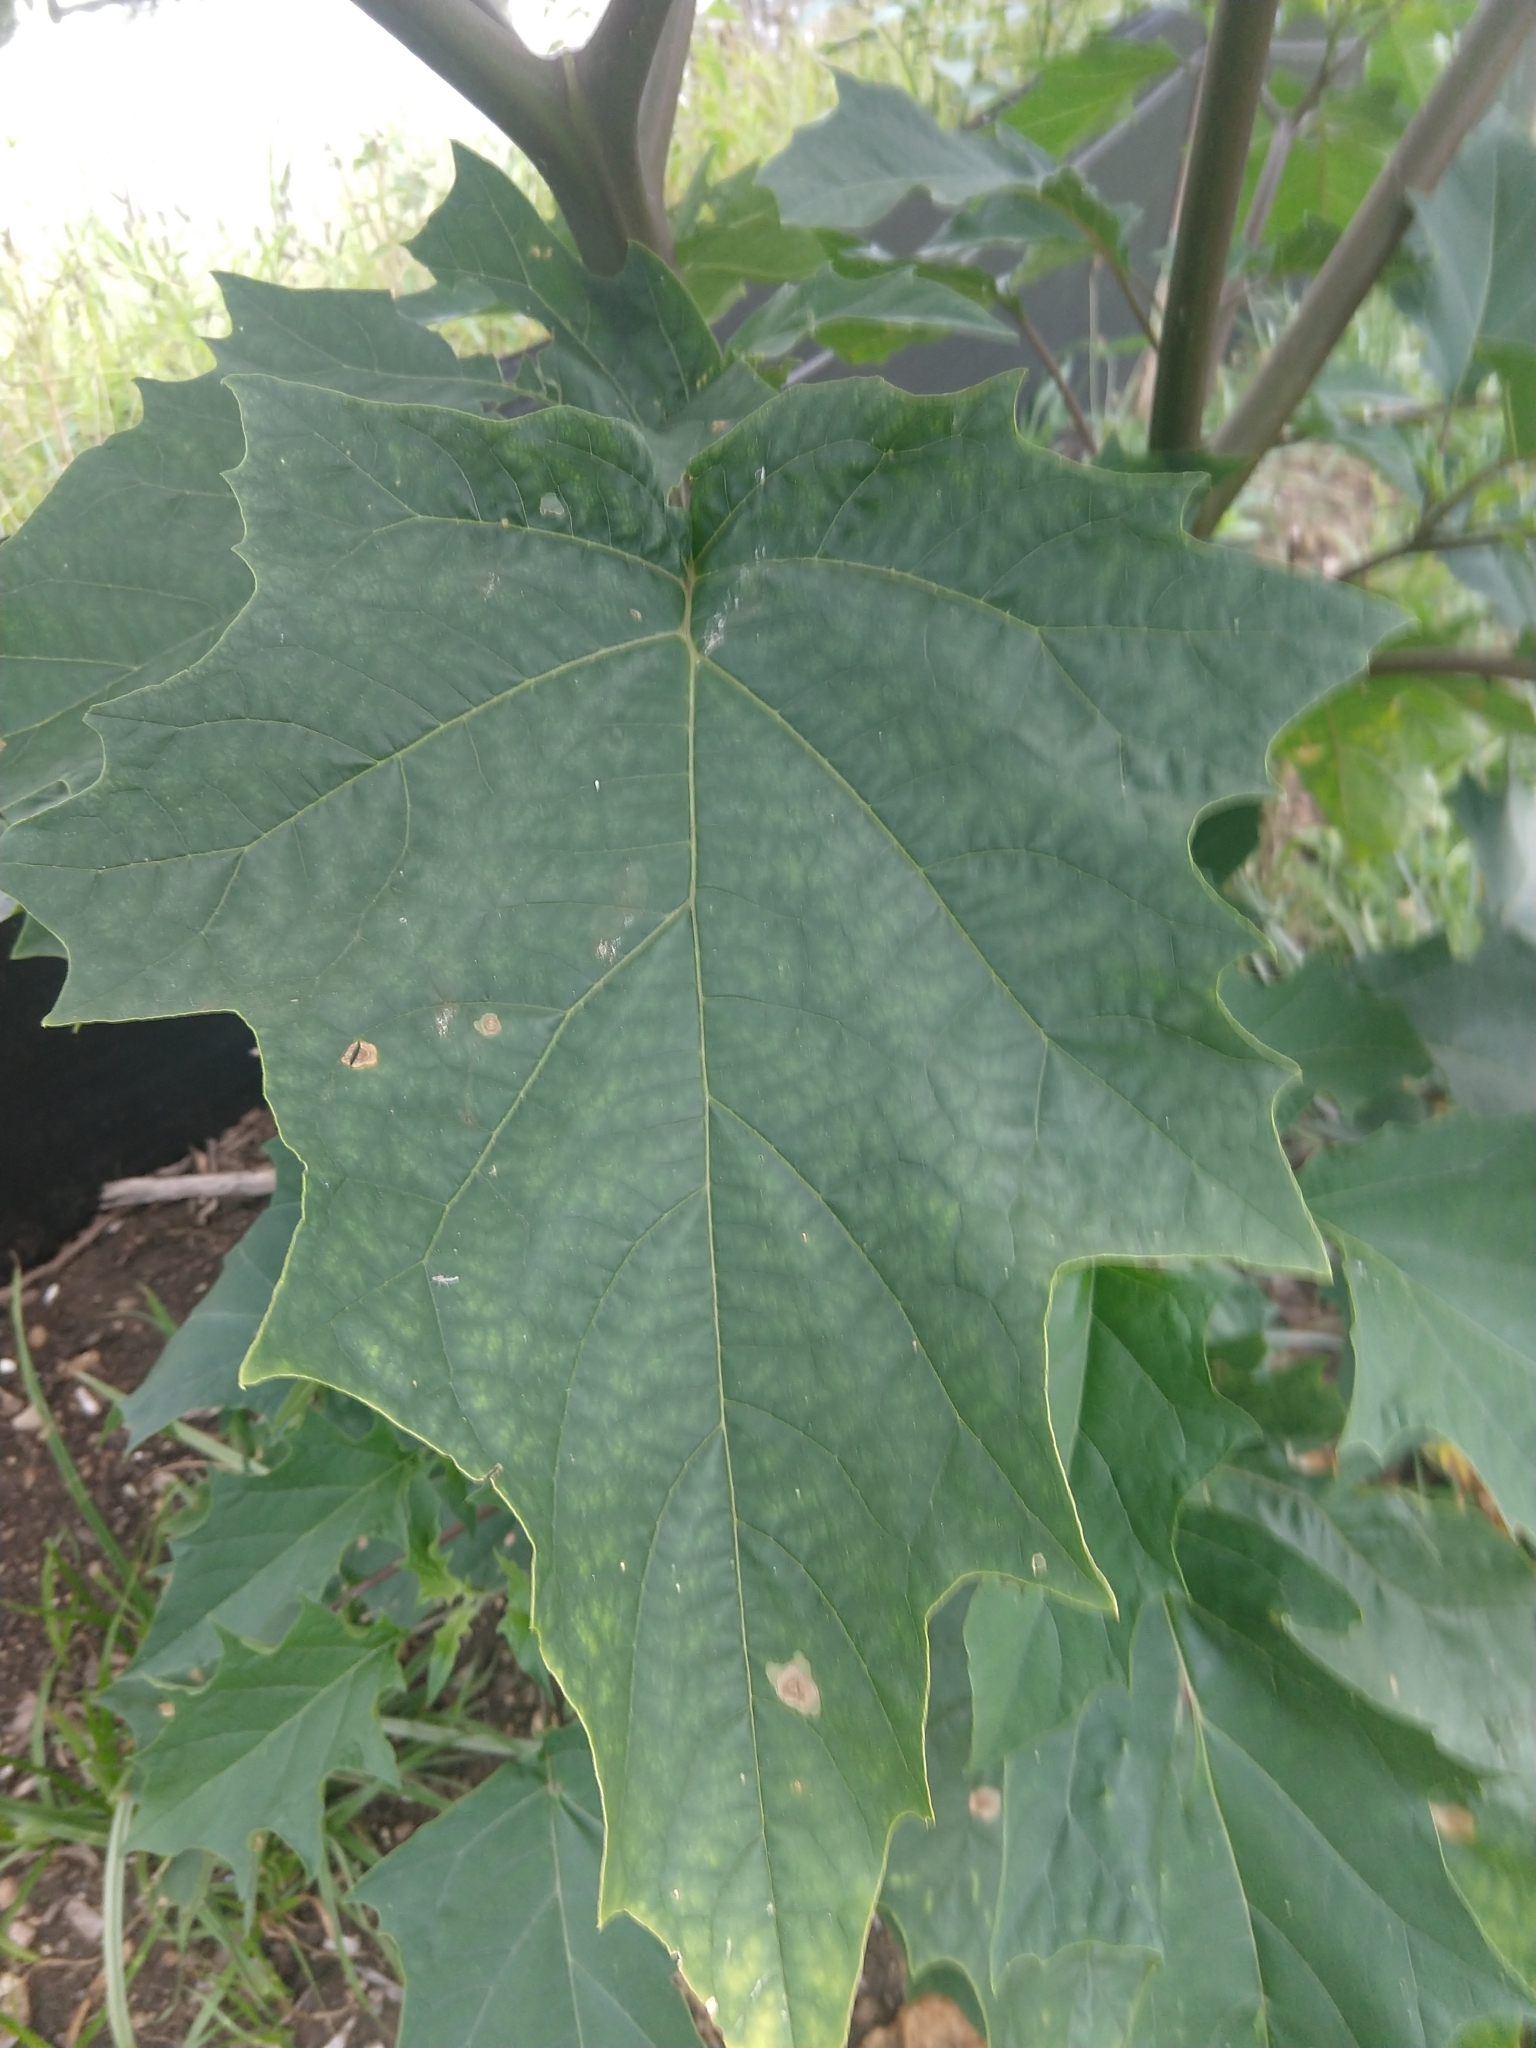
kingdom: Plantae
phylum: Tracheophyta
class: Magnoliopsida
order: Solanales
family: Solanaceae
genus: Datura
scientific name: Datura stramonium
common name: Thorn-apple
